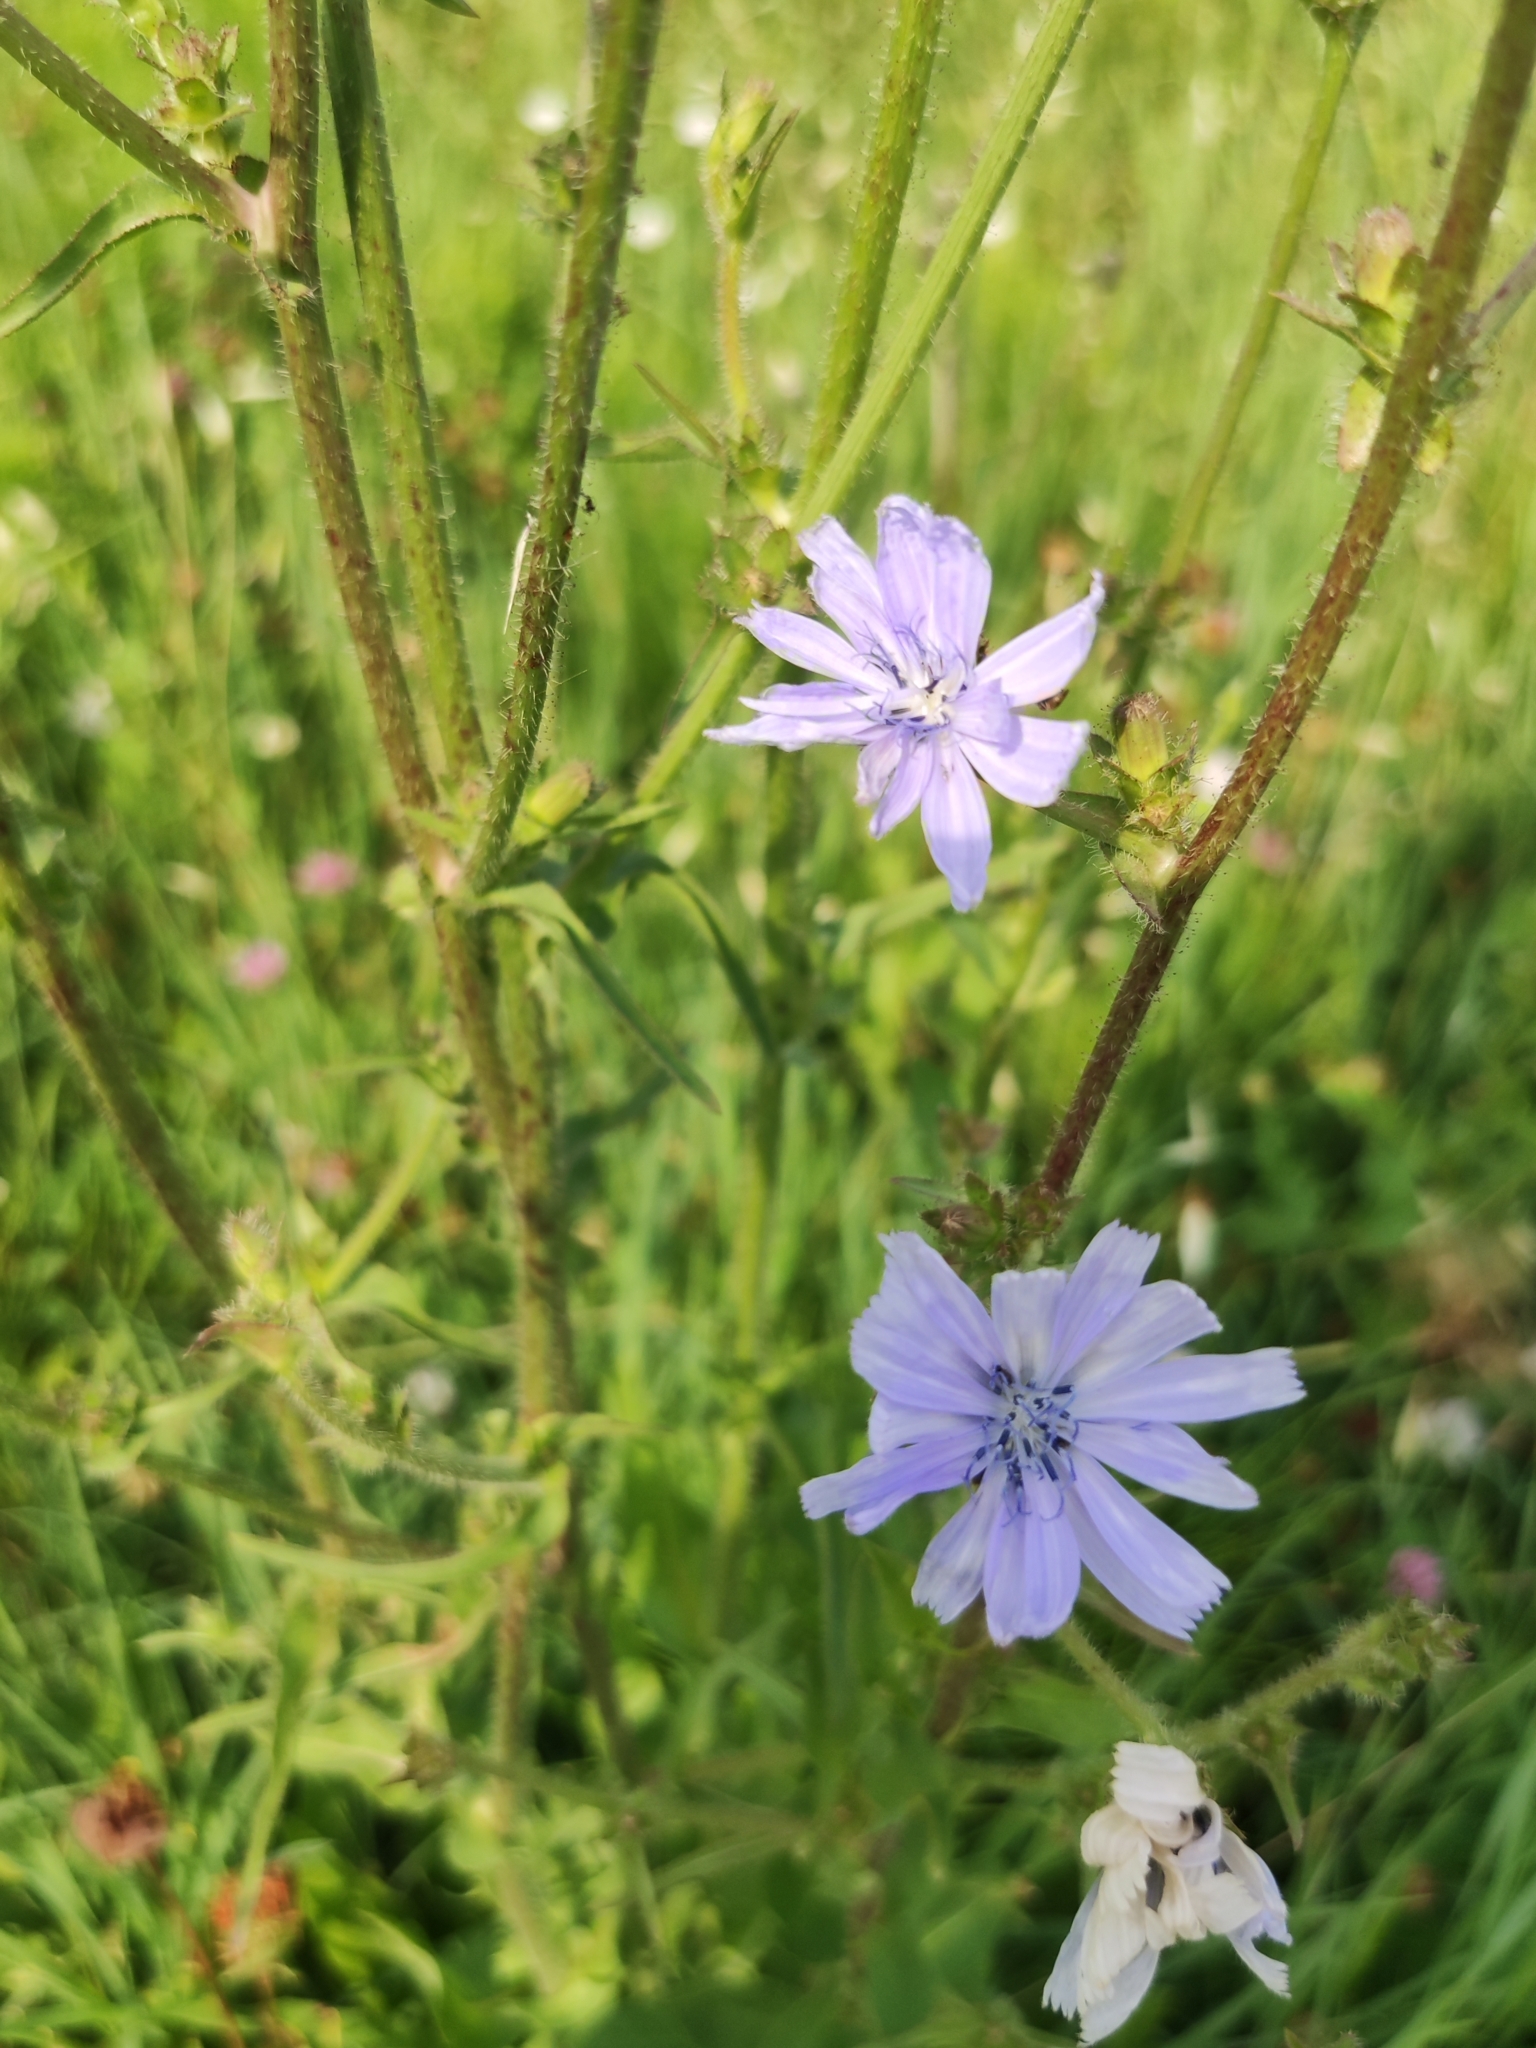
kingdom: Plantae
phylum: Tracheophyta
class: Magnoliopsida
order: Asterales
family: Asteraceae
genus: Cichorium
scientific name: Cichorium intybus
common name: Chicory
